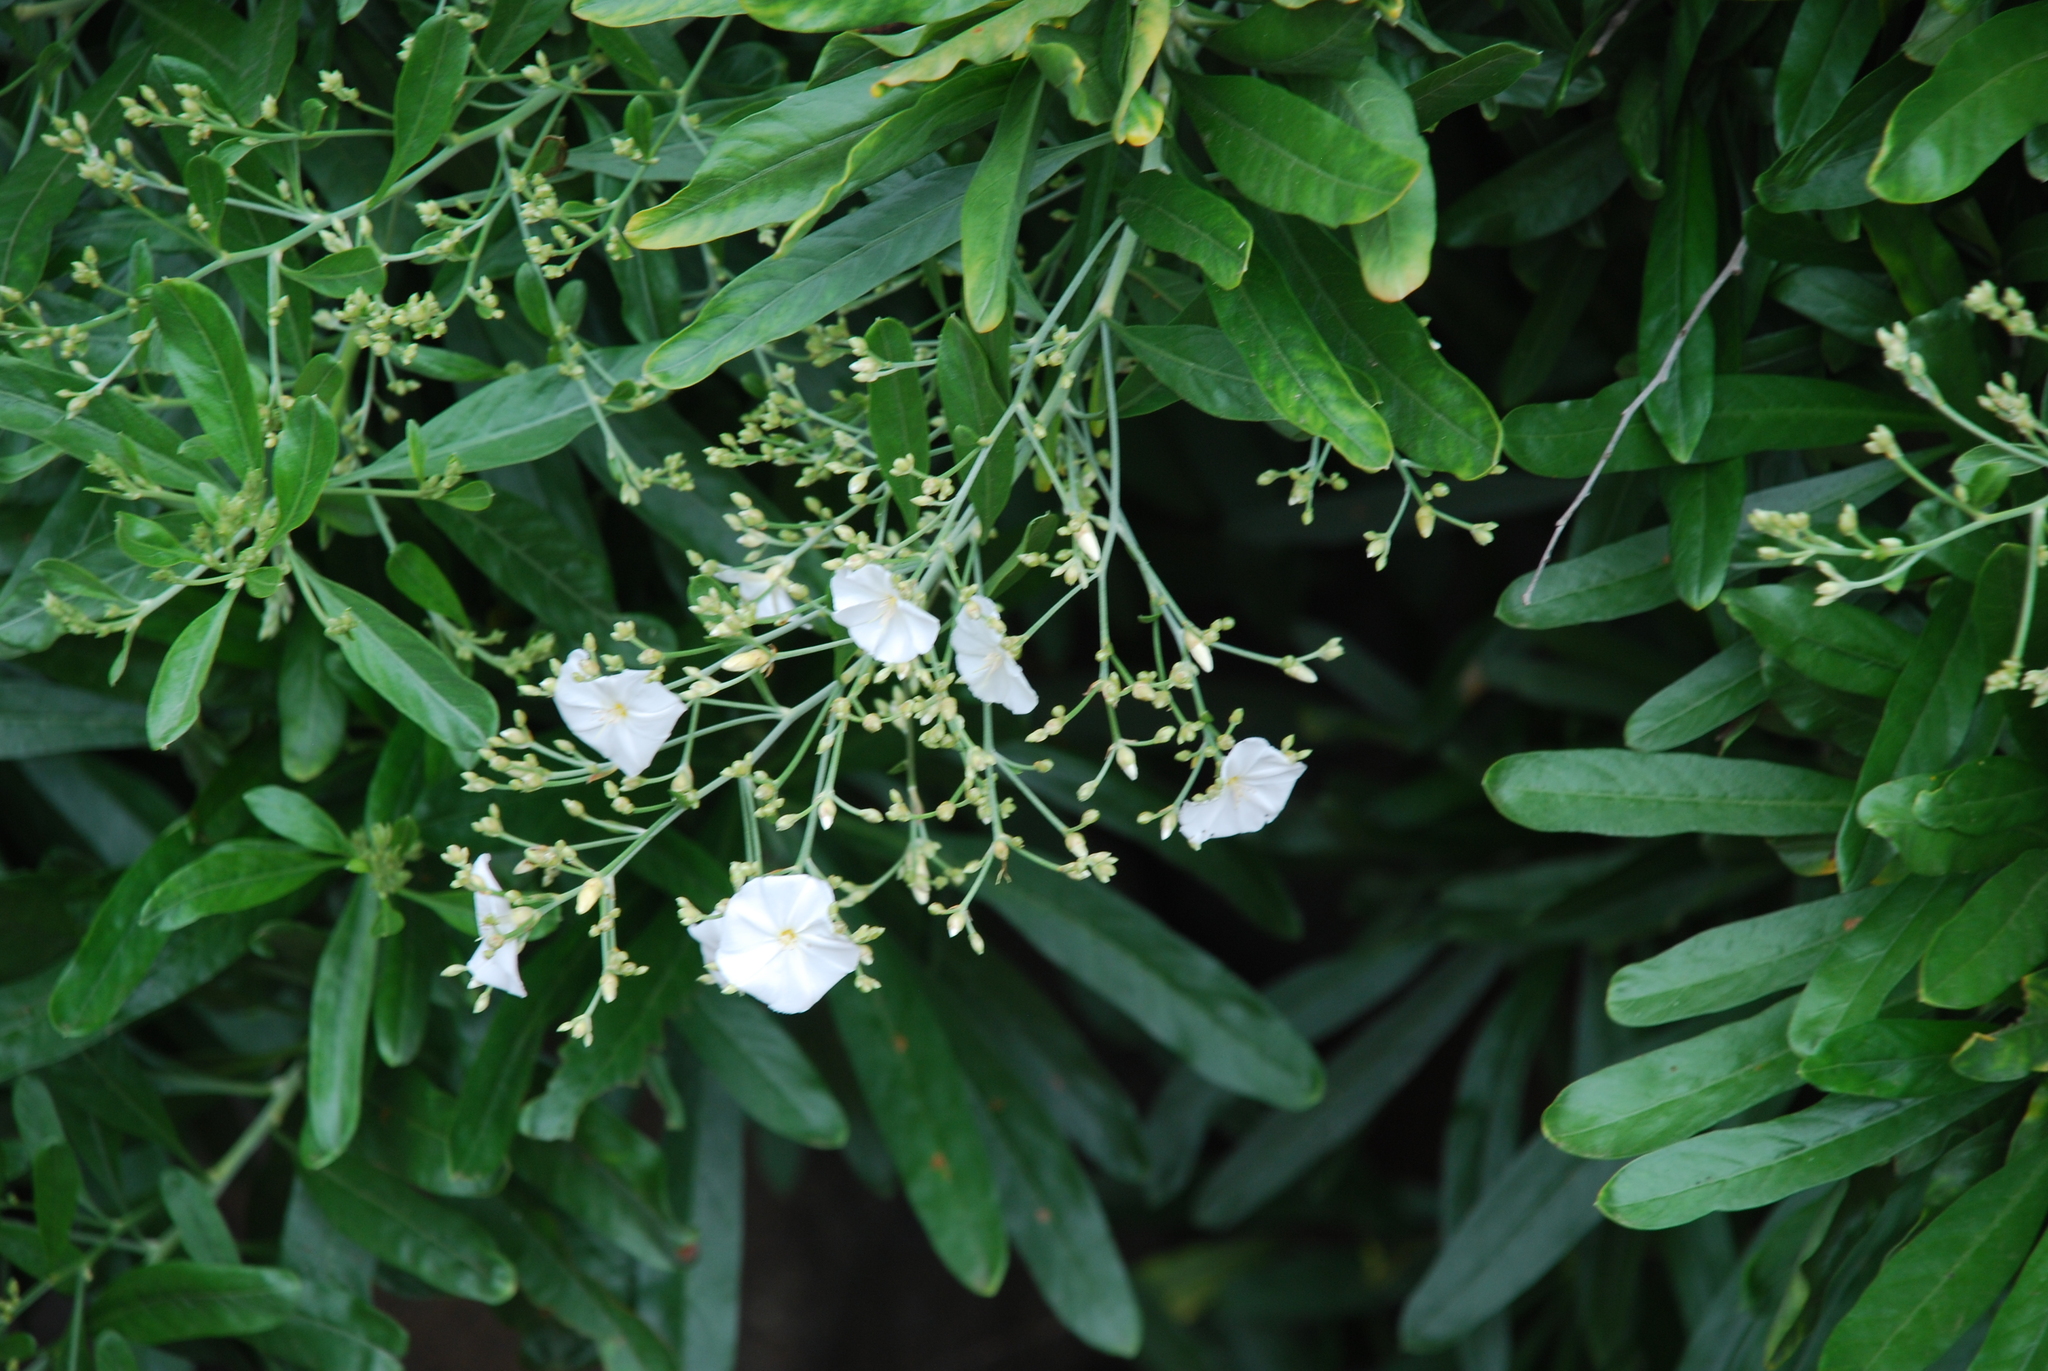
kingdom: Plantae
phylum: Tracheophyta
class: Magnoliopsida
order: Solanales
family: Convolvulaceae
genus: Convolvulus
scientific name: Convolvulus floridus
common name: Guadil
